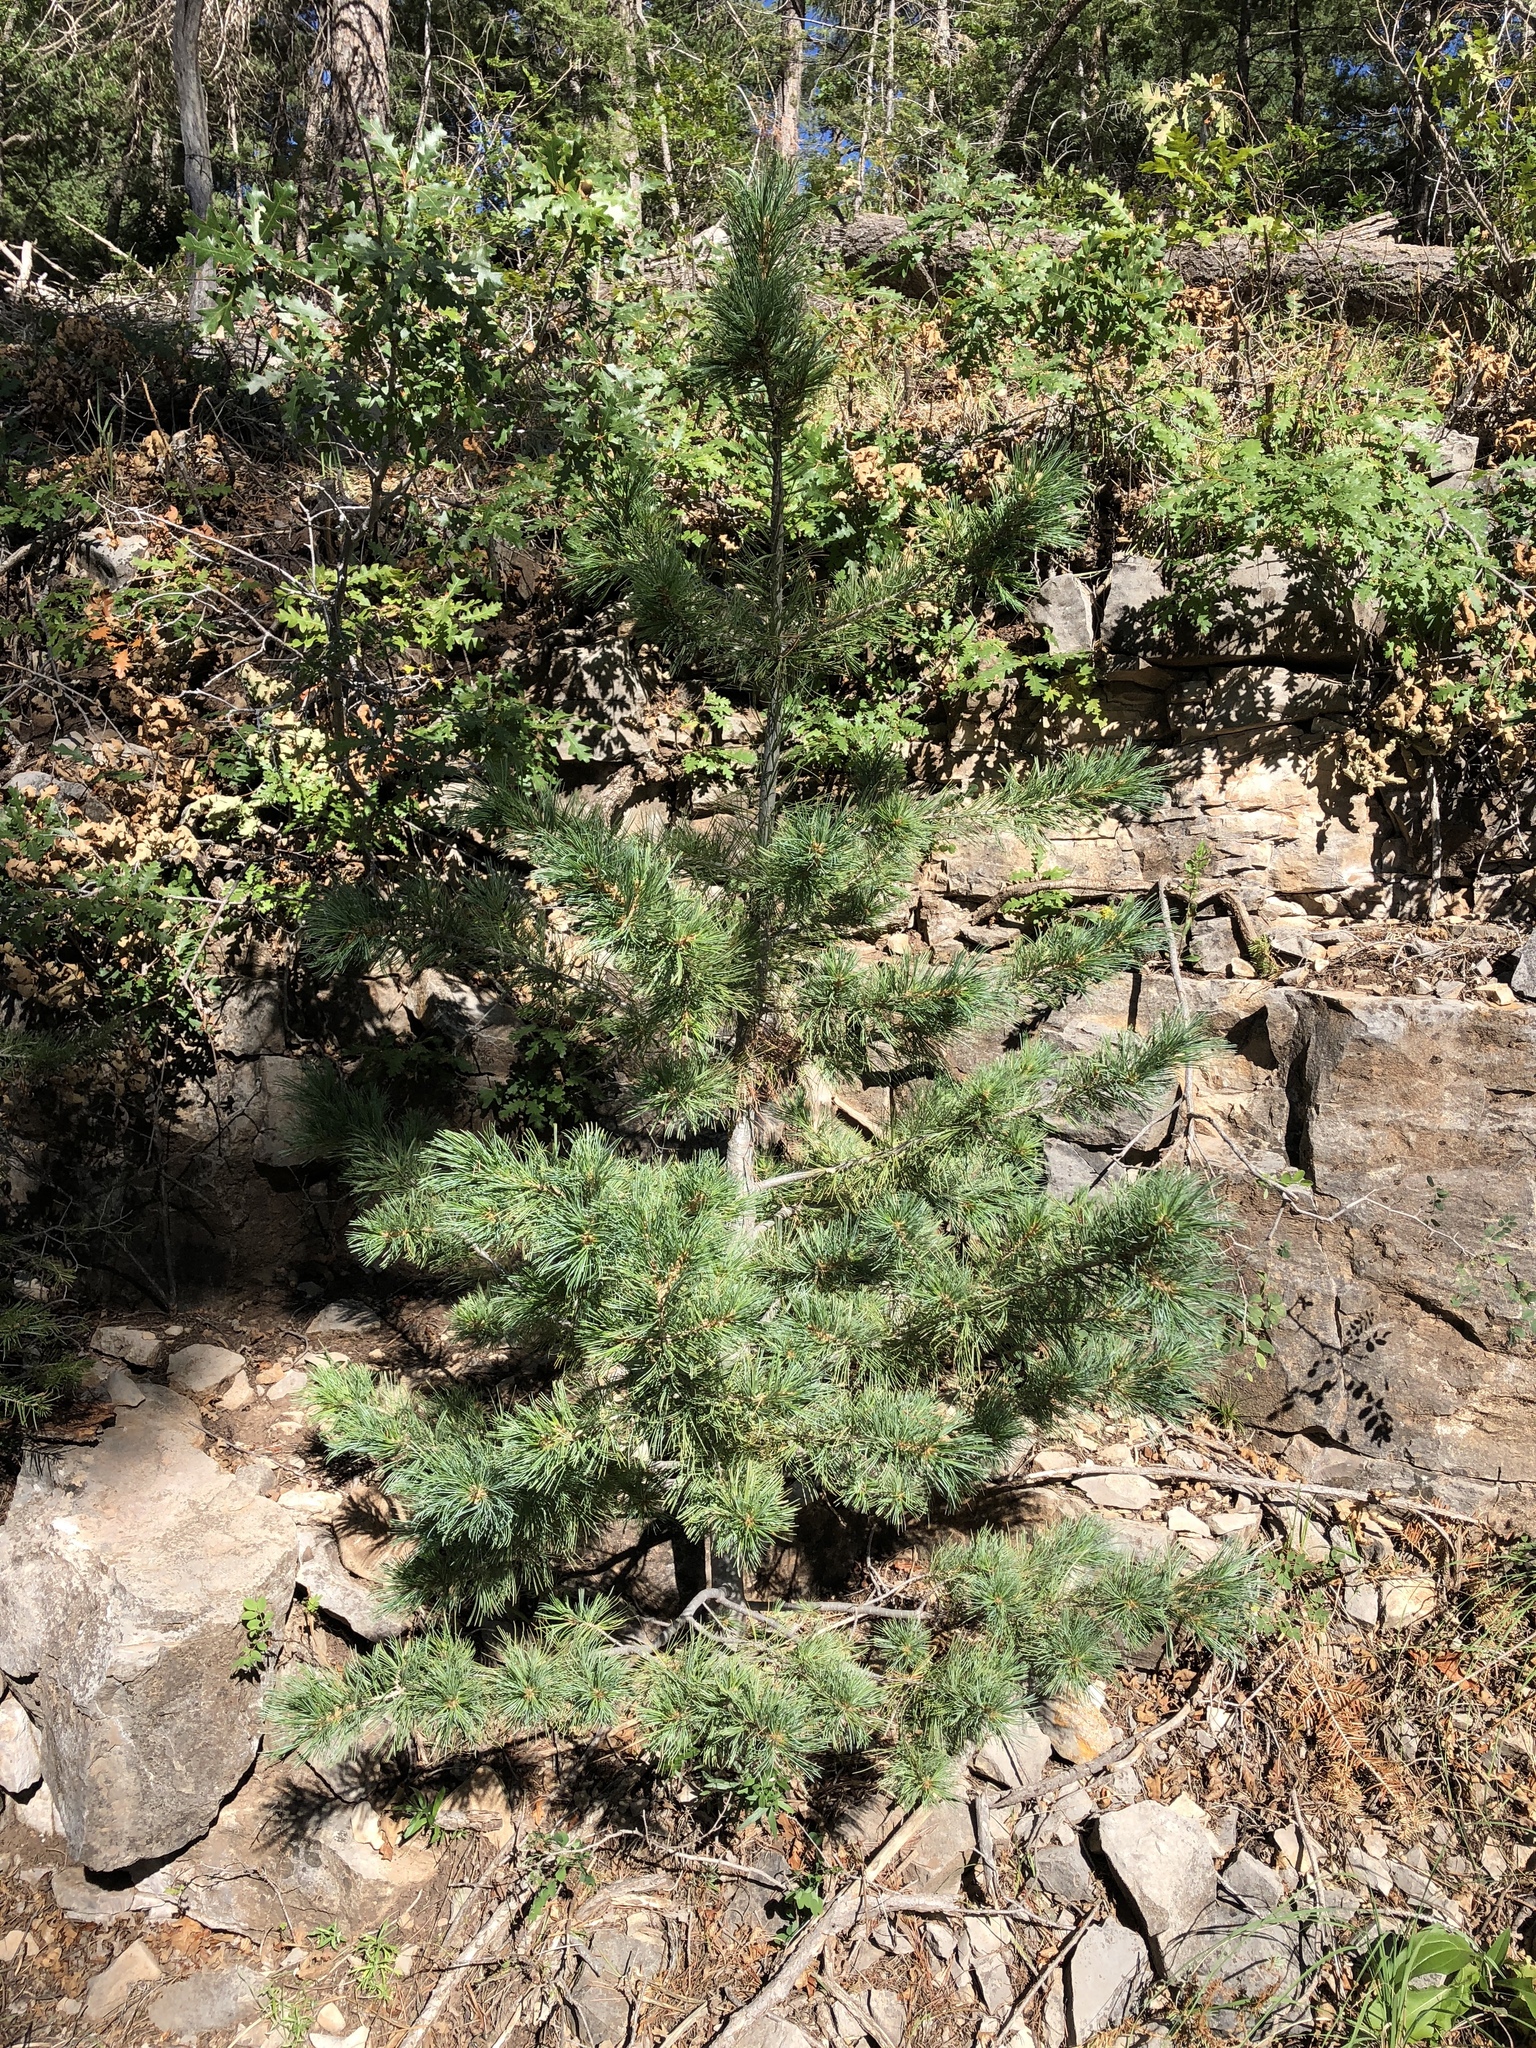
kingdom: Plantae
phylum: Tracheophyta
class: Pinopsida
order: Pinales
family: Pinaceae
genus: Pinus
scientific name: Pinus strobiformis
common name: Southwestern white pine
